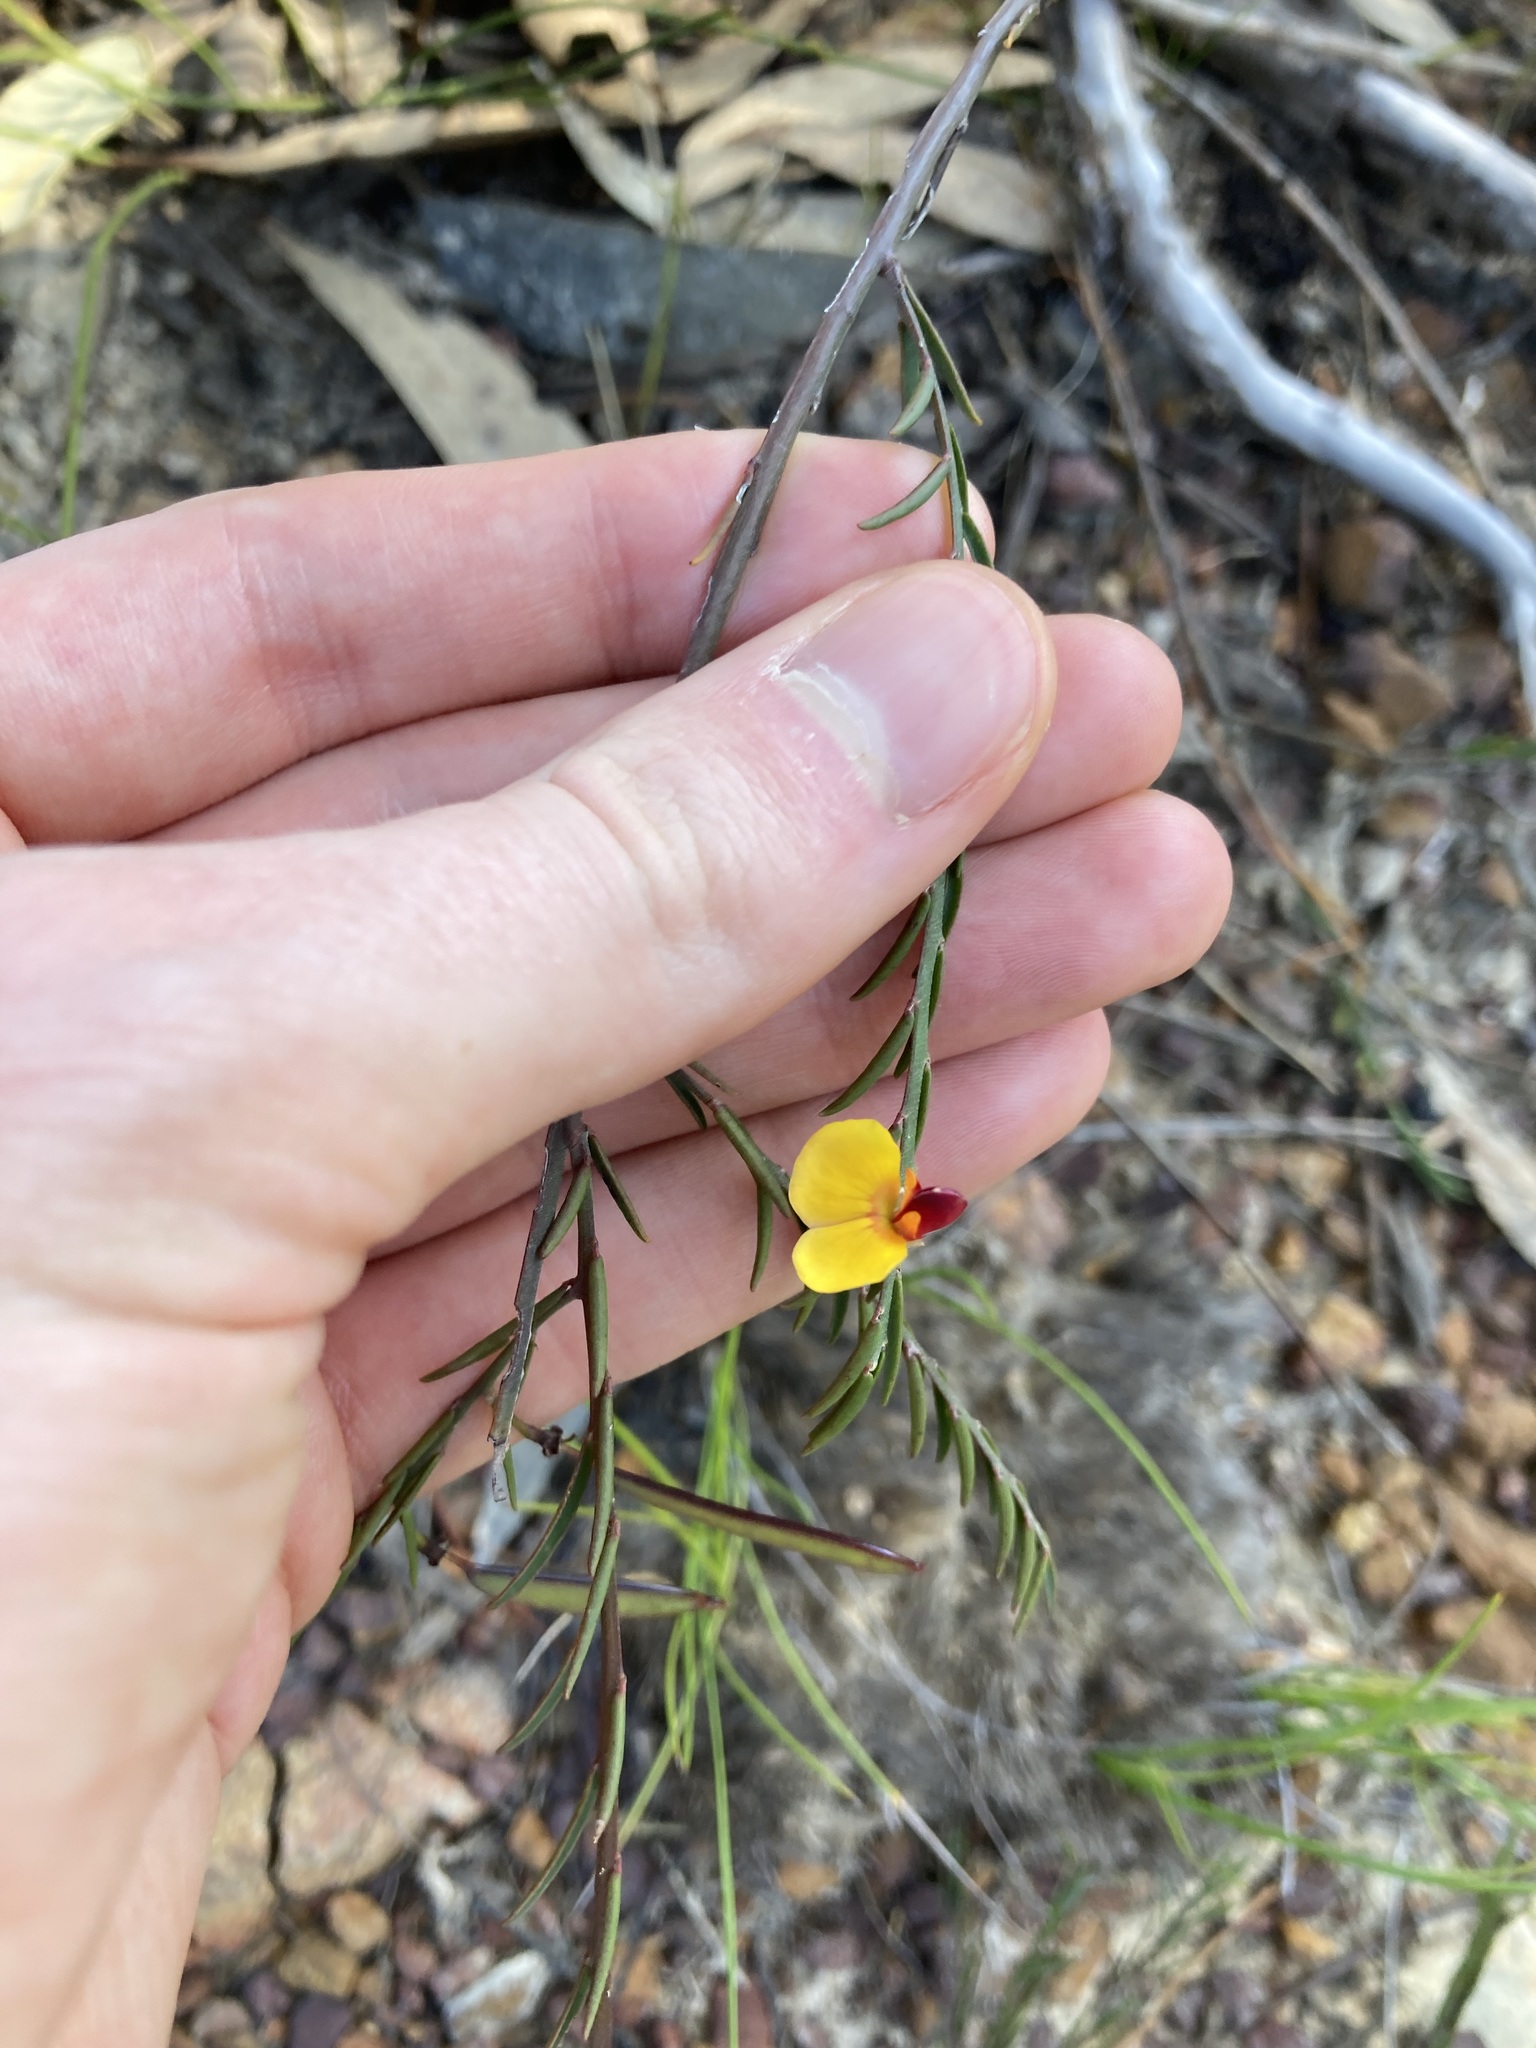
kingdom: Plantae
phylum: Tracheophyta
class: Magnoliopsida
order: Fabales
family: Fabaceae
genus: Bossiaea
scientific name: Bossiaea heterophylla
